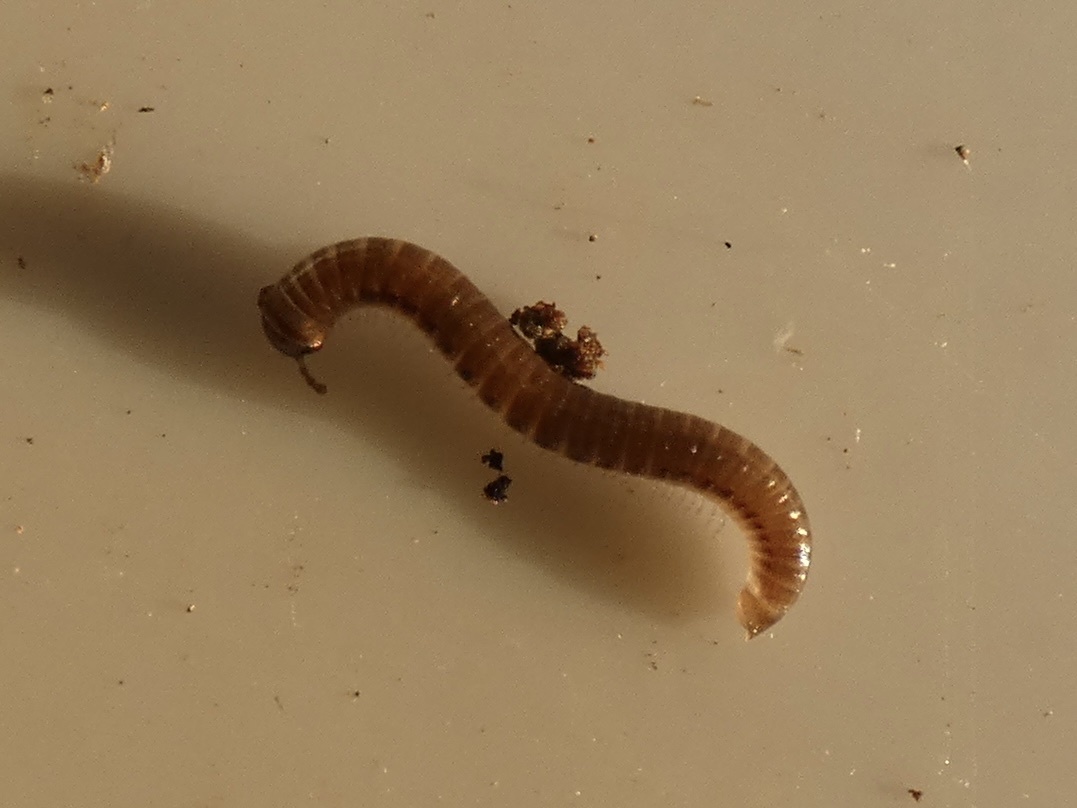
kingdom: Animalia
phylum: Arthropoda
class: Diplopoda
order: Julida
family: Julidae
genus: Tachypodoiulus
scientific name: Tachypodoiulus niger
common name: White-legged snake millipede
